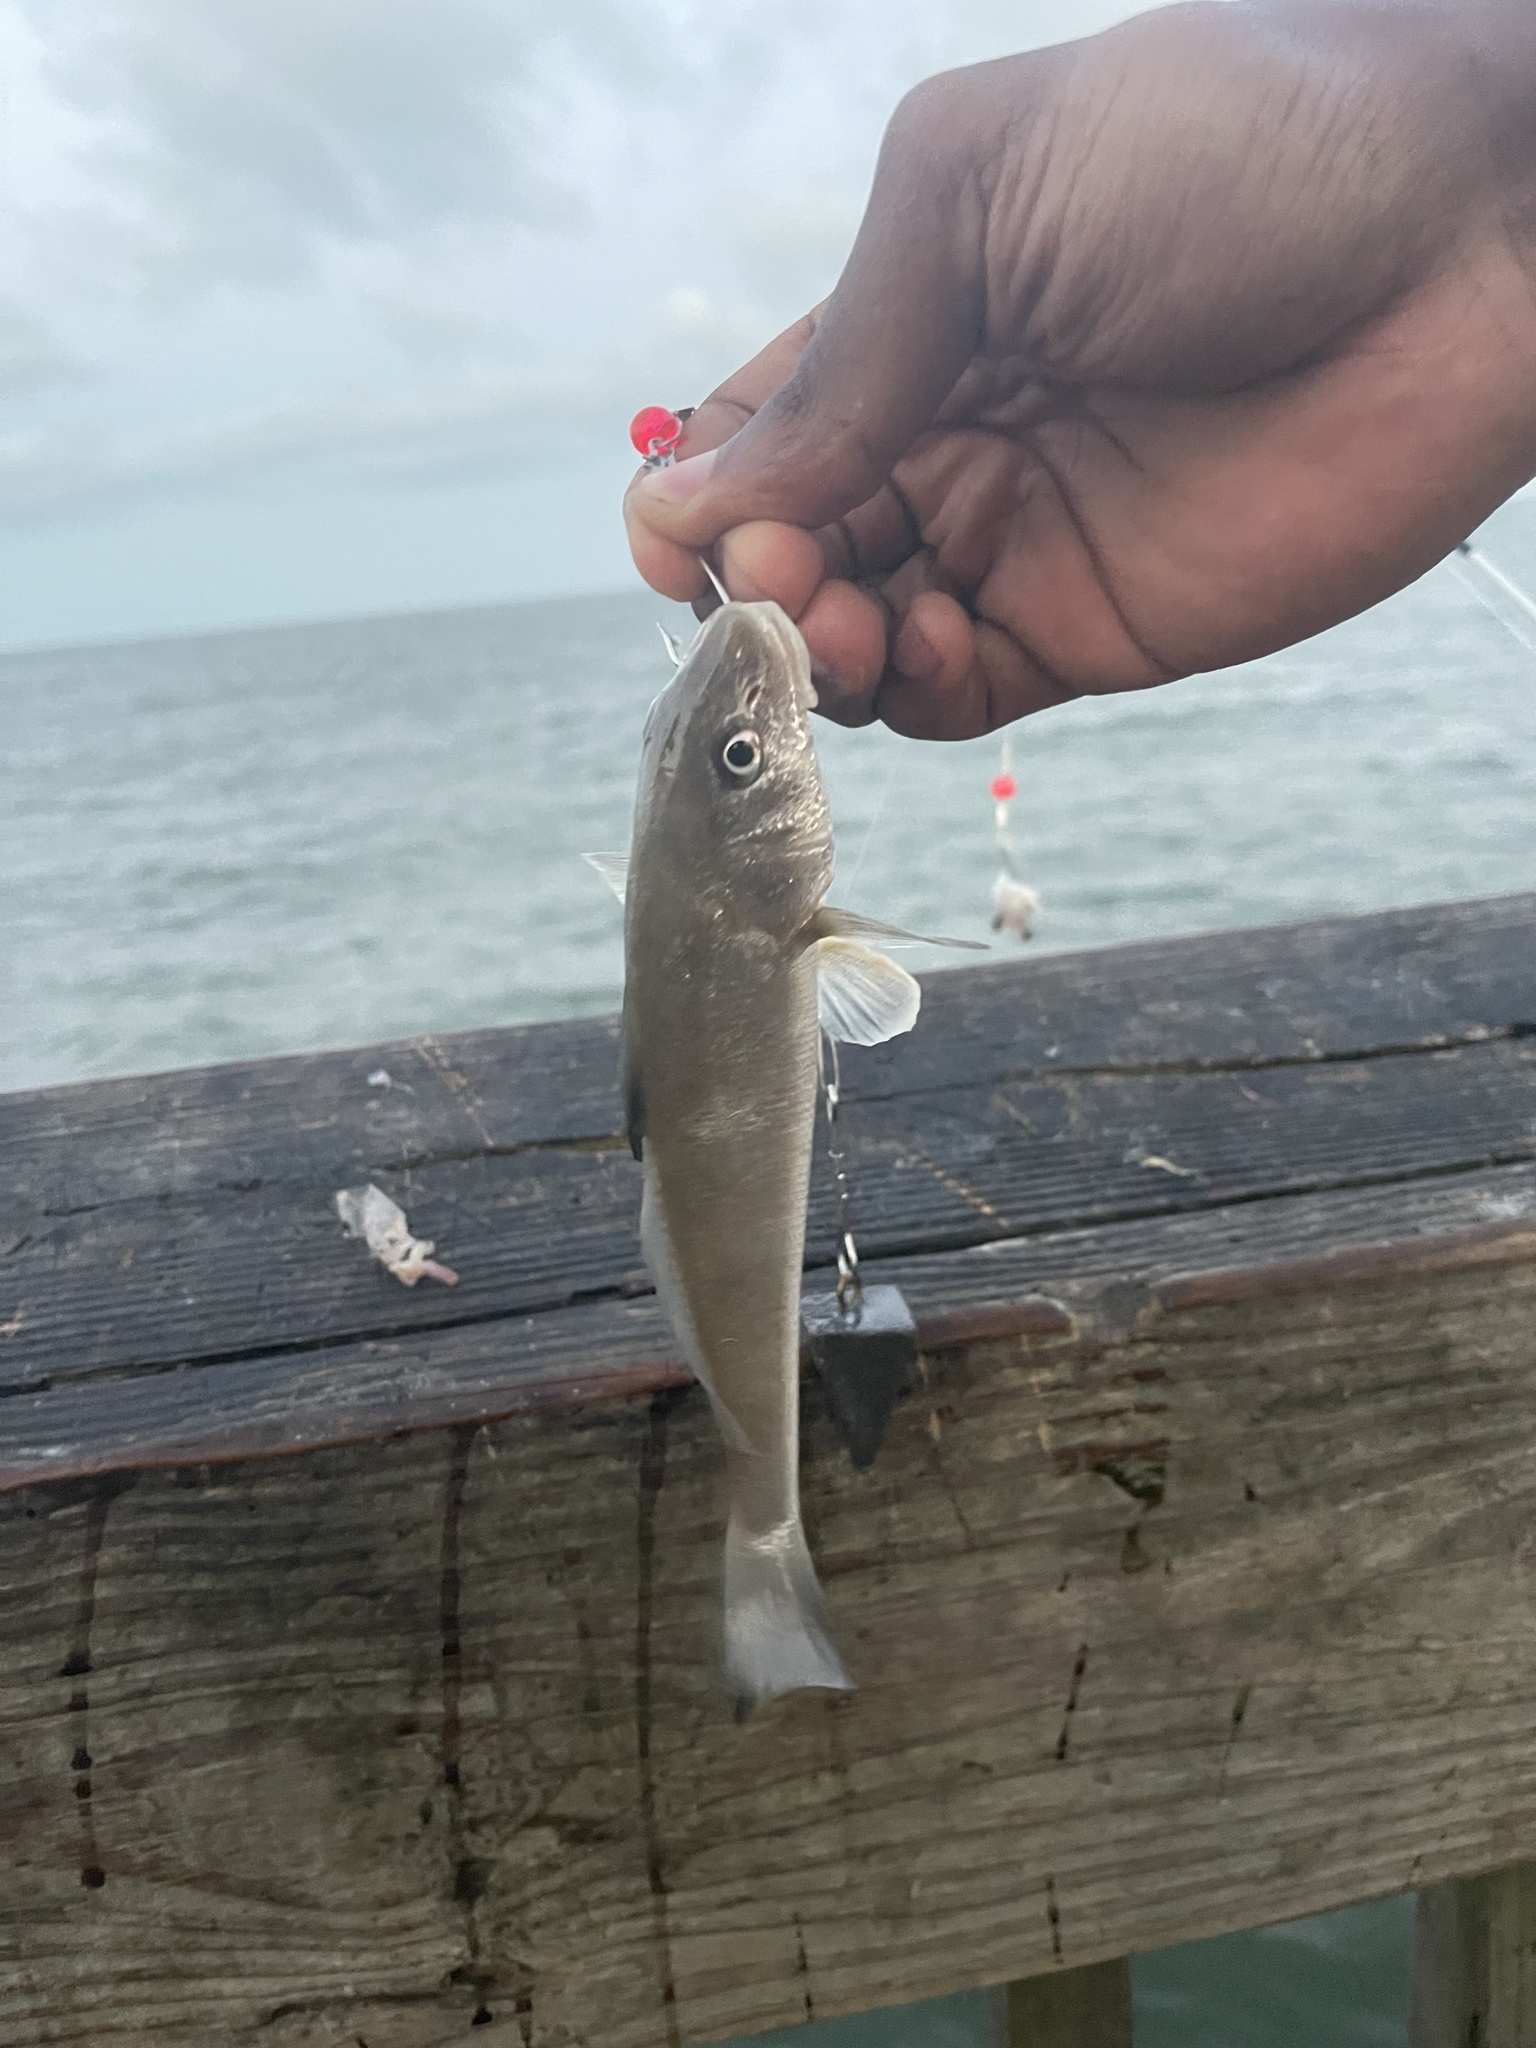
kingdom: Animalia
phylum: Chordata
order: Perciformes
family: Sciaenidae
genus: Menticirrhus
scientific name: Menticirrhus littoralis
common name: Gulf kingcroaker
